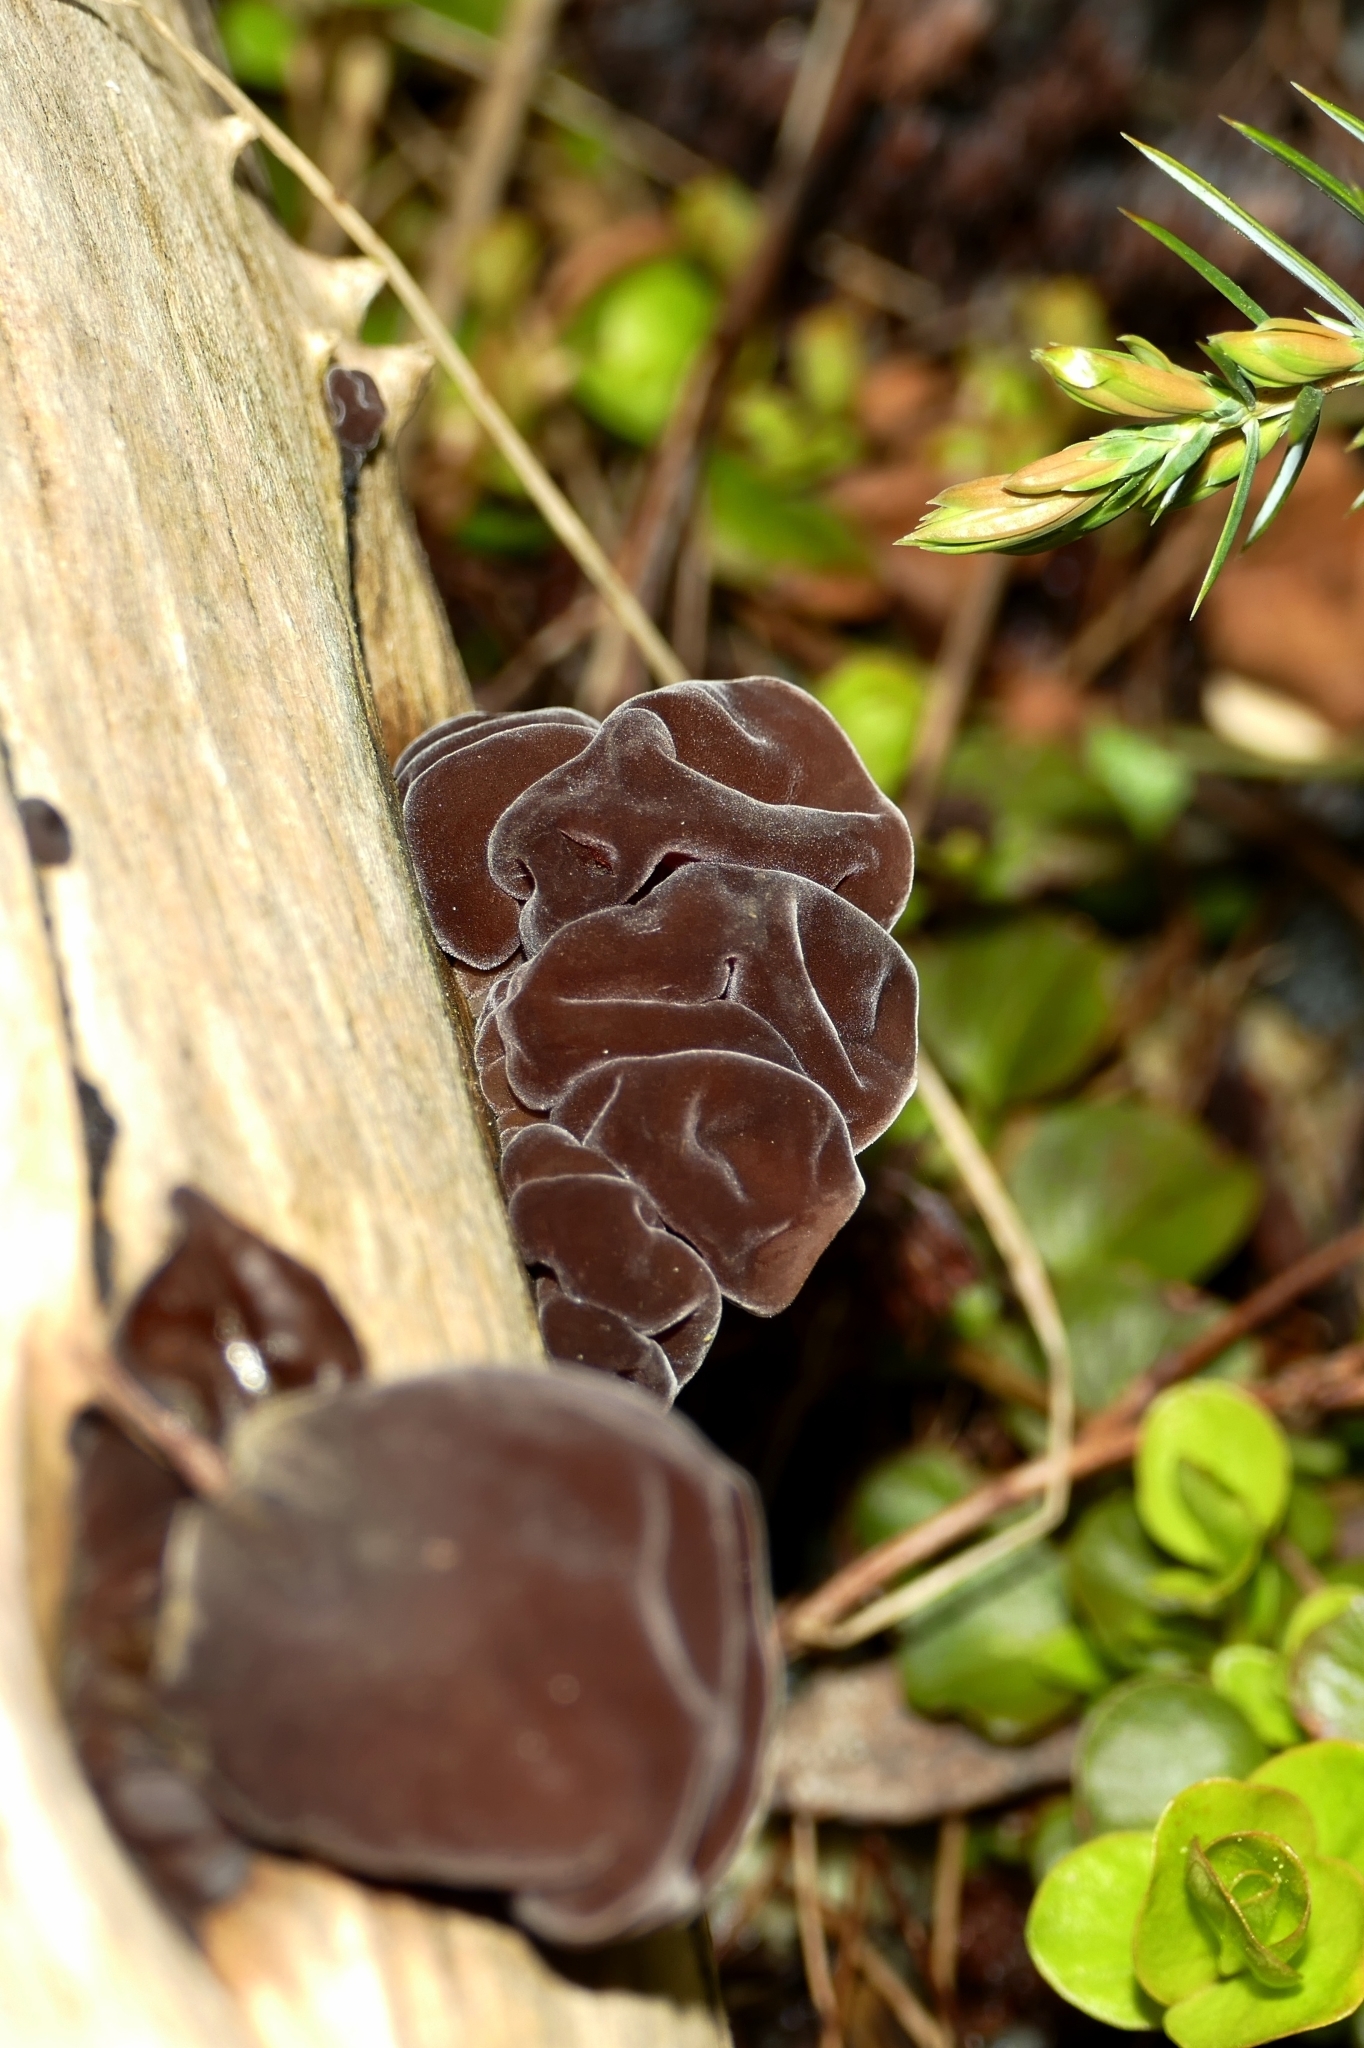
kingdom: Fungi
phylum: Basidiomycota
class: Agaricomycetes
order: Auriculariales
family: Auriculariaceae
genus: Auricularia
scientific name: Auricularia auricula-judae
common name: Jelly ear
